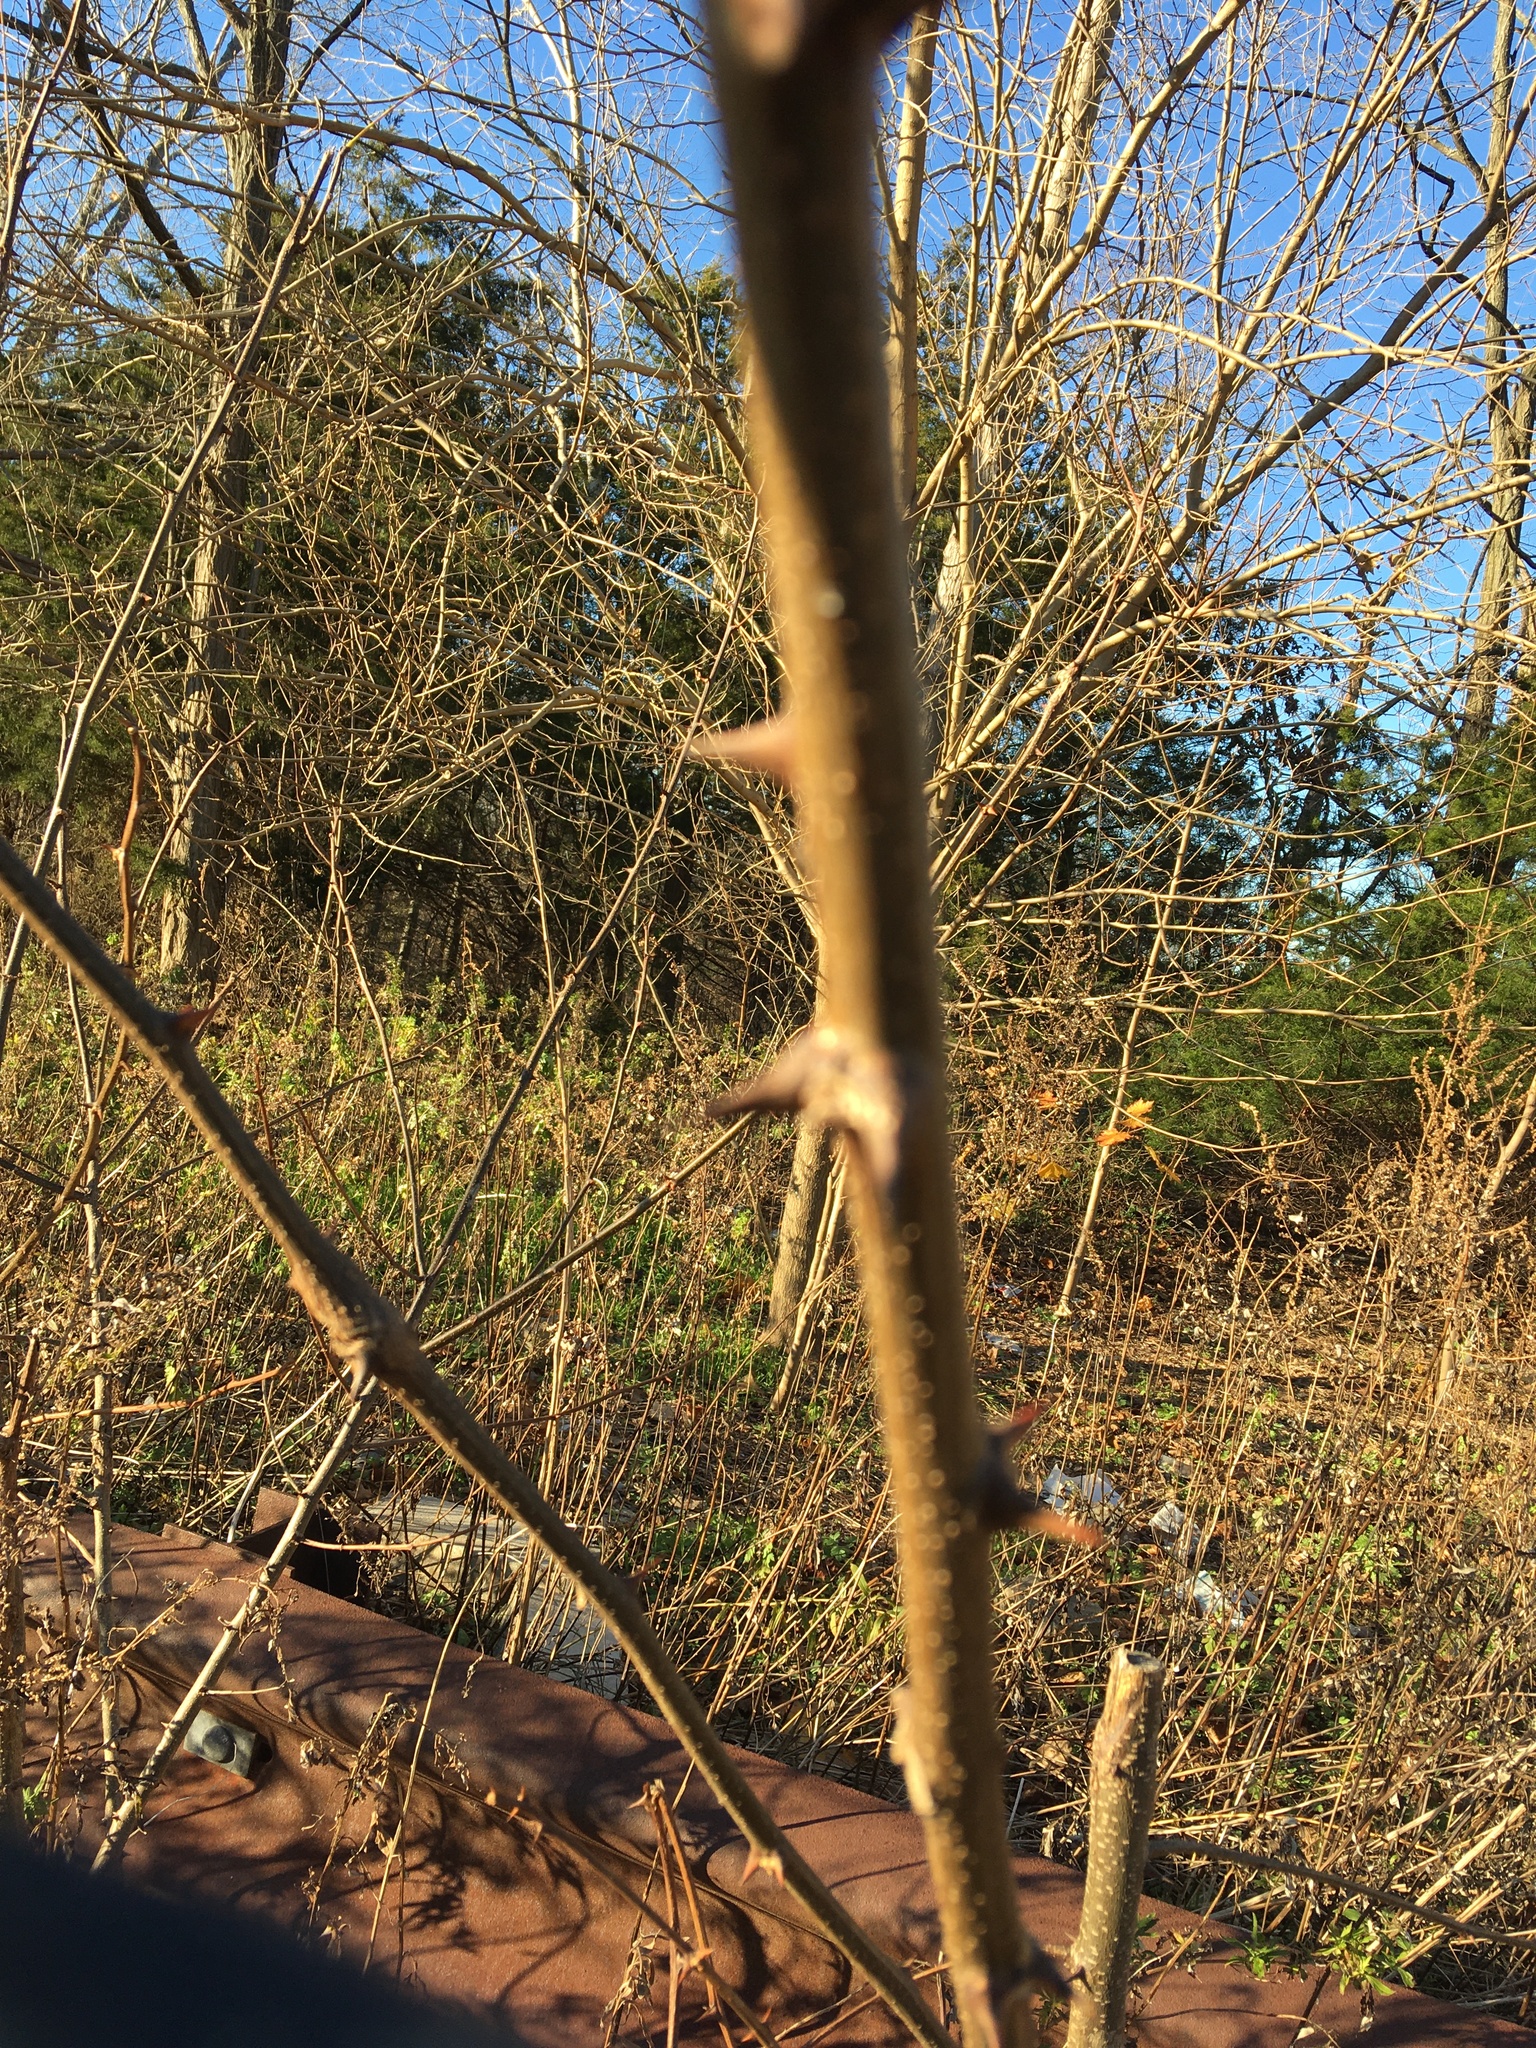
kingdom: Plantae
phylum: Tracheophyta
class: Magnoliopsida
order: Fabales
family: Fabaceae
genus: Robinia
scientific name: Robinia pseudoacacia
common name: Black locust
